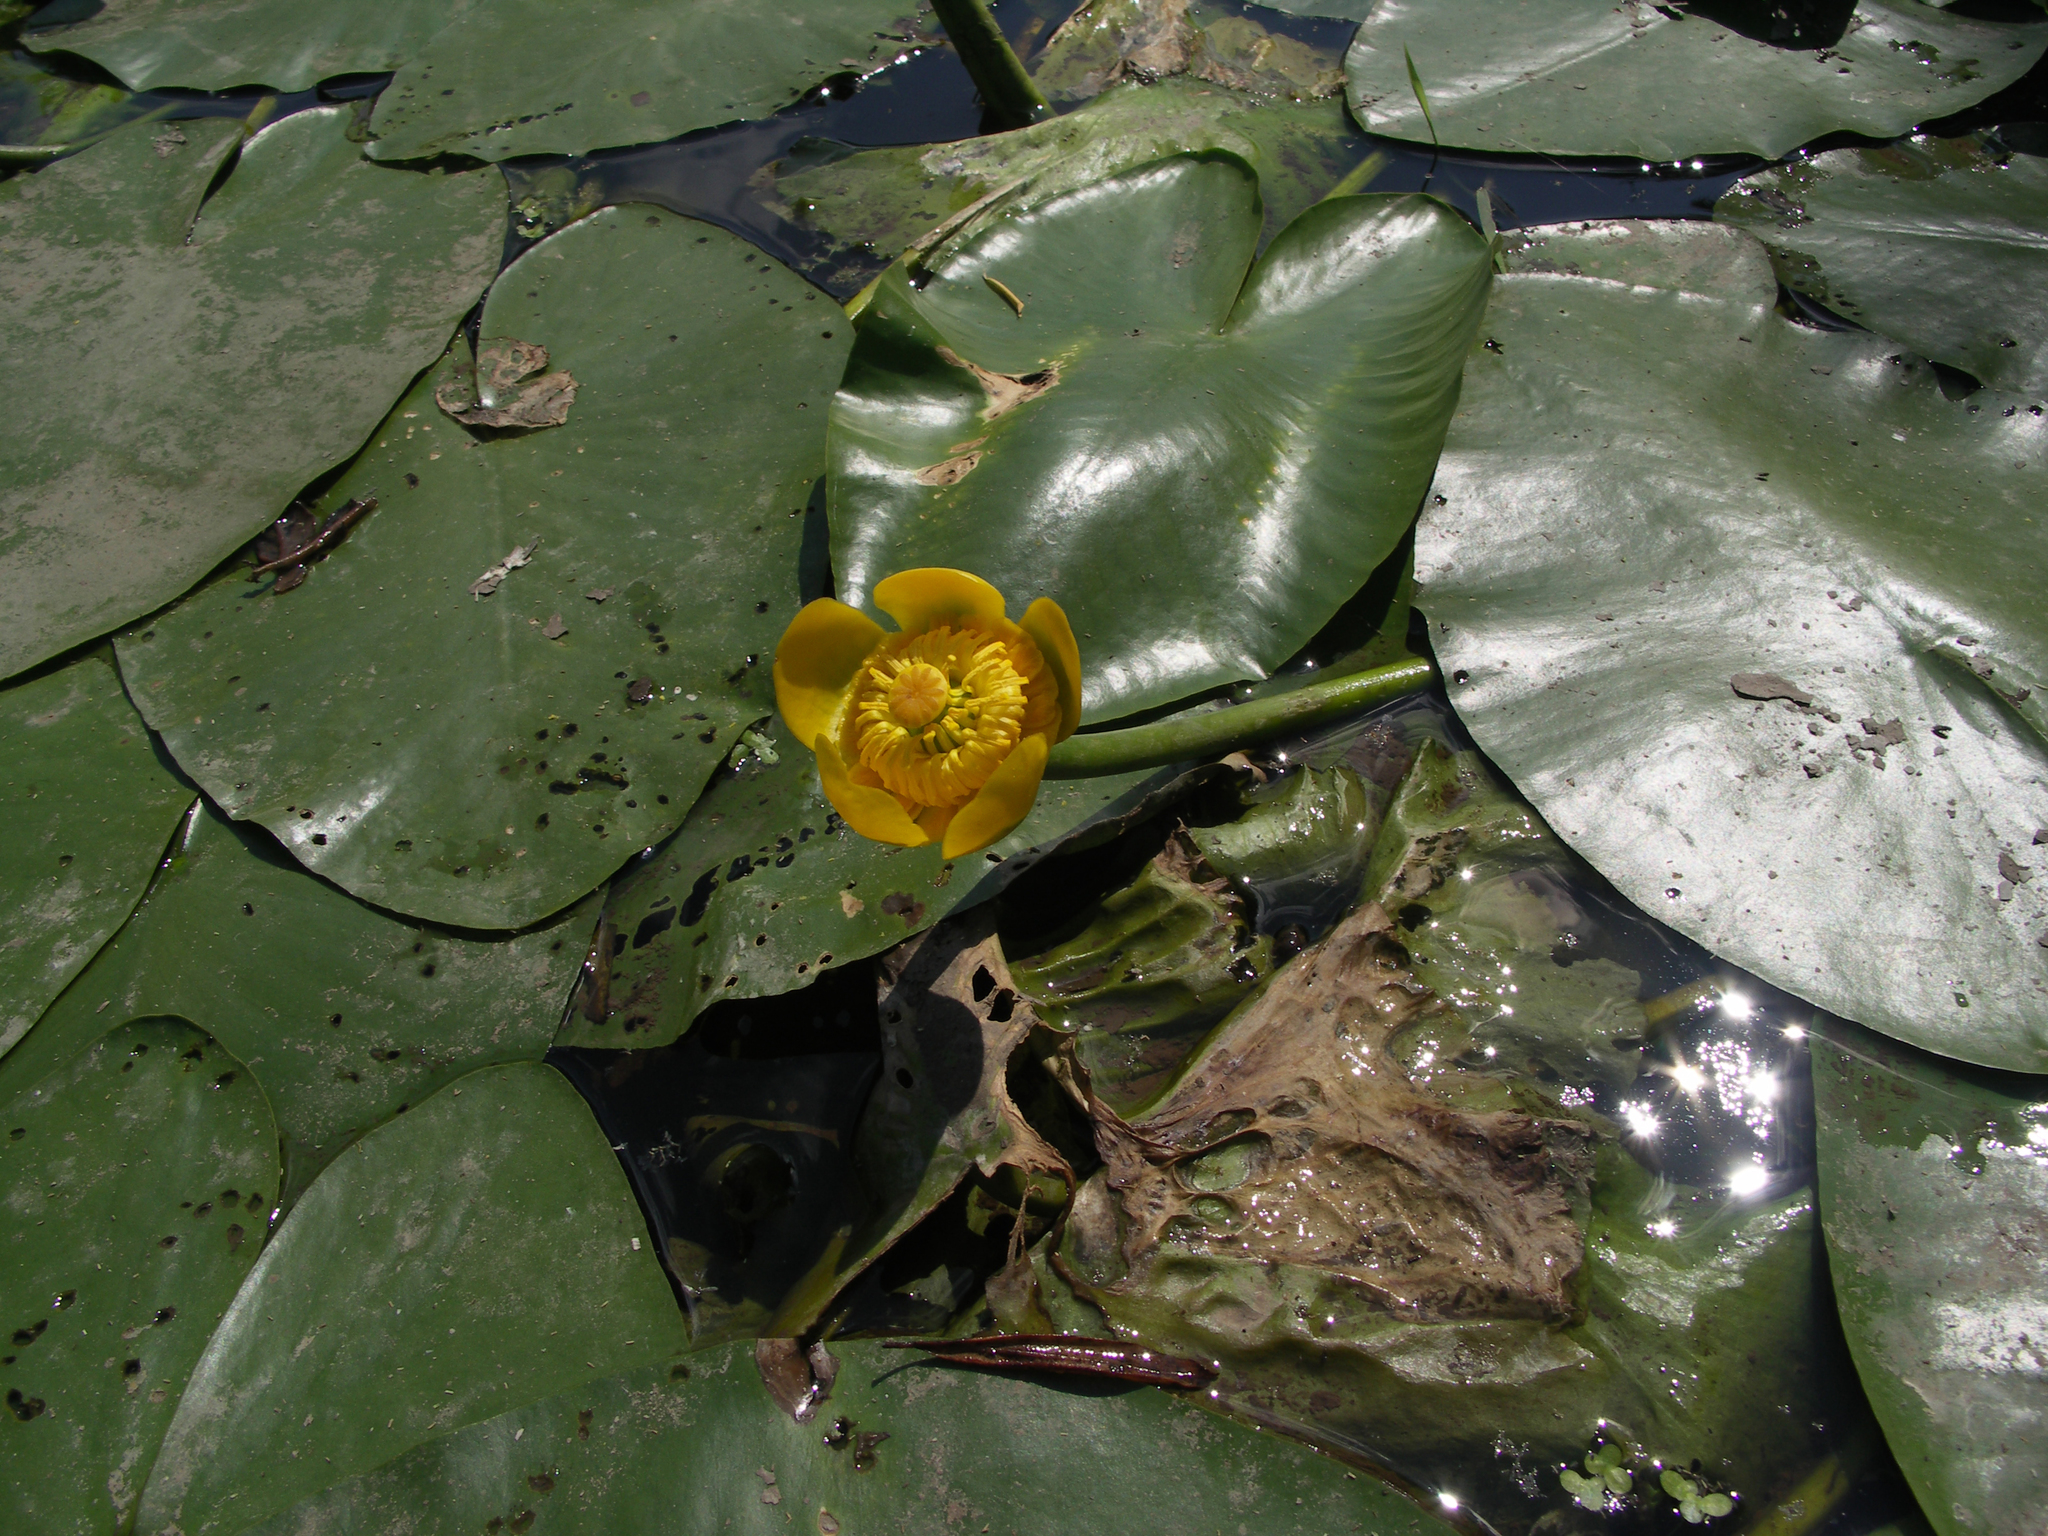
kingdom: Plantae
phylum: Tracheophyta
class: Magnoliopsida
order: Nymphaeales
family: Nymphaeaceae
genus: Nuphar
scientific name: Nuphar lutea
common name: Yellow water-lily
